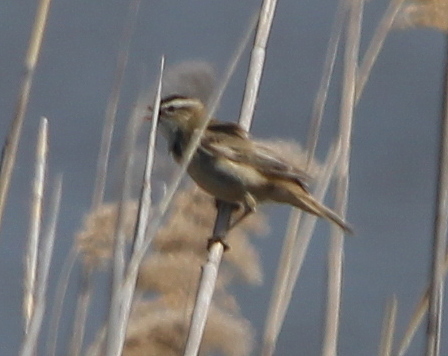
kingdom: Animalia
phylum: Chordata
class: Aves
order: Passeriformes
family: Acrocephalidae
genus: Acrocephalus
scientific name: Acrocephalus schoenobaenus
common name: Sedge warbler
